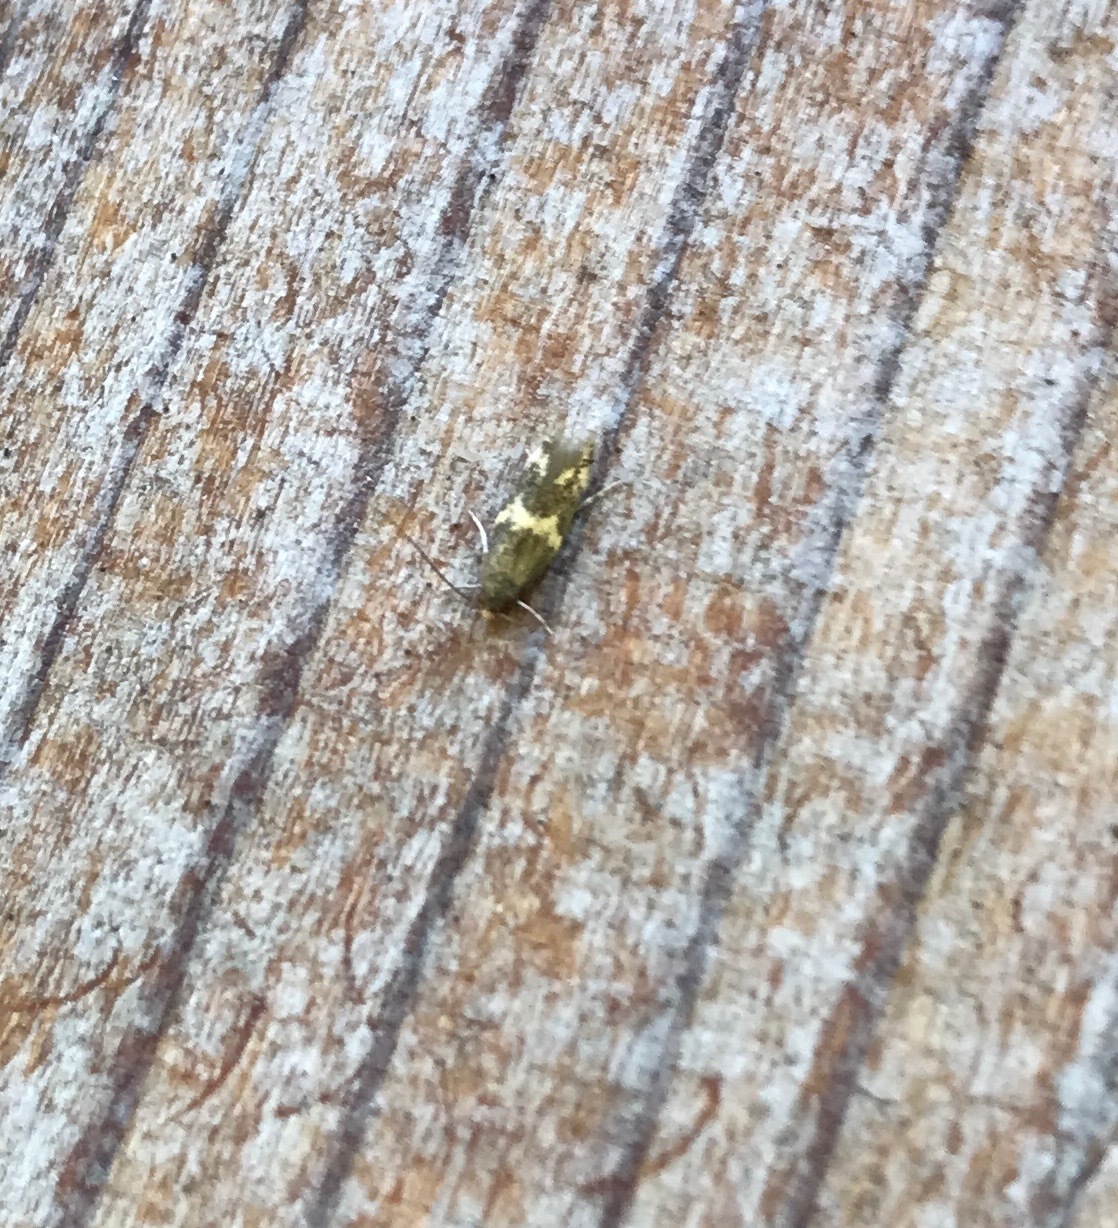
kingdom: Animalia
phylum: Arthropoda
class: Insecta
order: Lepidoptera
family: Tineidae
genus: Oinophila
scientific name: Oinophila v-flava
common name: Yellow v moth
